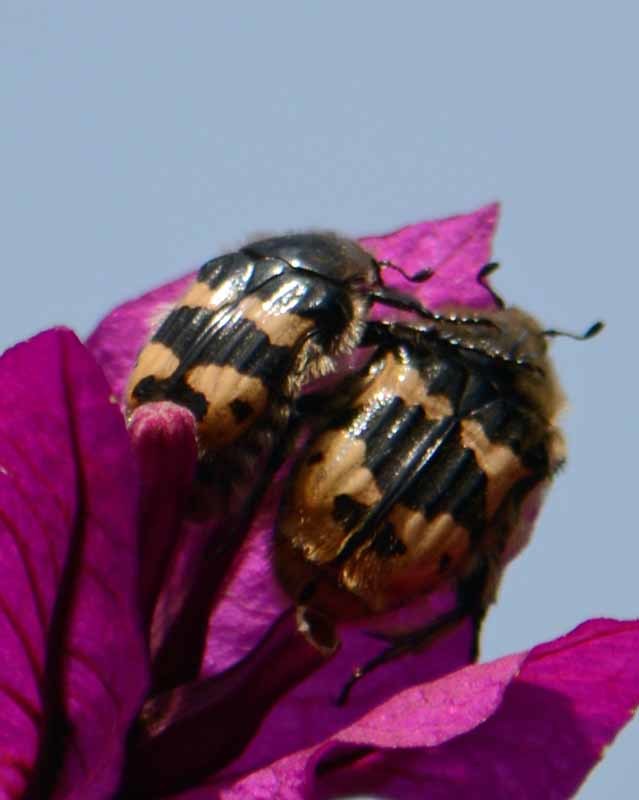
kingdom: Animalia
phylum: Arthropoda
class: Insecta
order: Coleoptera
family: Scarabaeidae
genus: Euphoria
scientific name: Euphoria basalis
